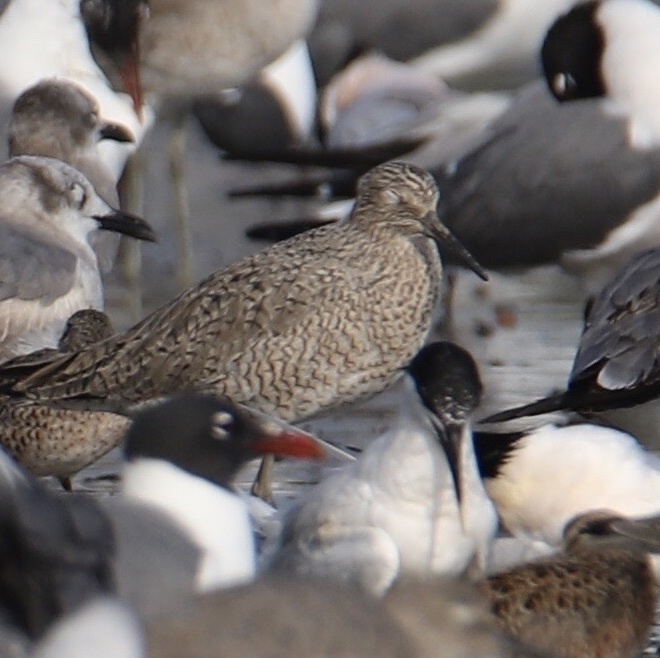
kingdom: Animalia
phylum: Chordata
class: Aves
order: Charadriiformes
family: Scolopacidae
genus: Tringa
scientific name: Tringa semipalmata
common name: Willet
